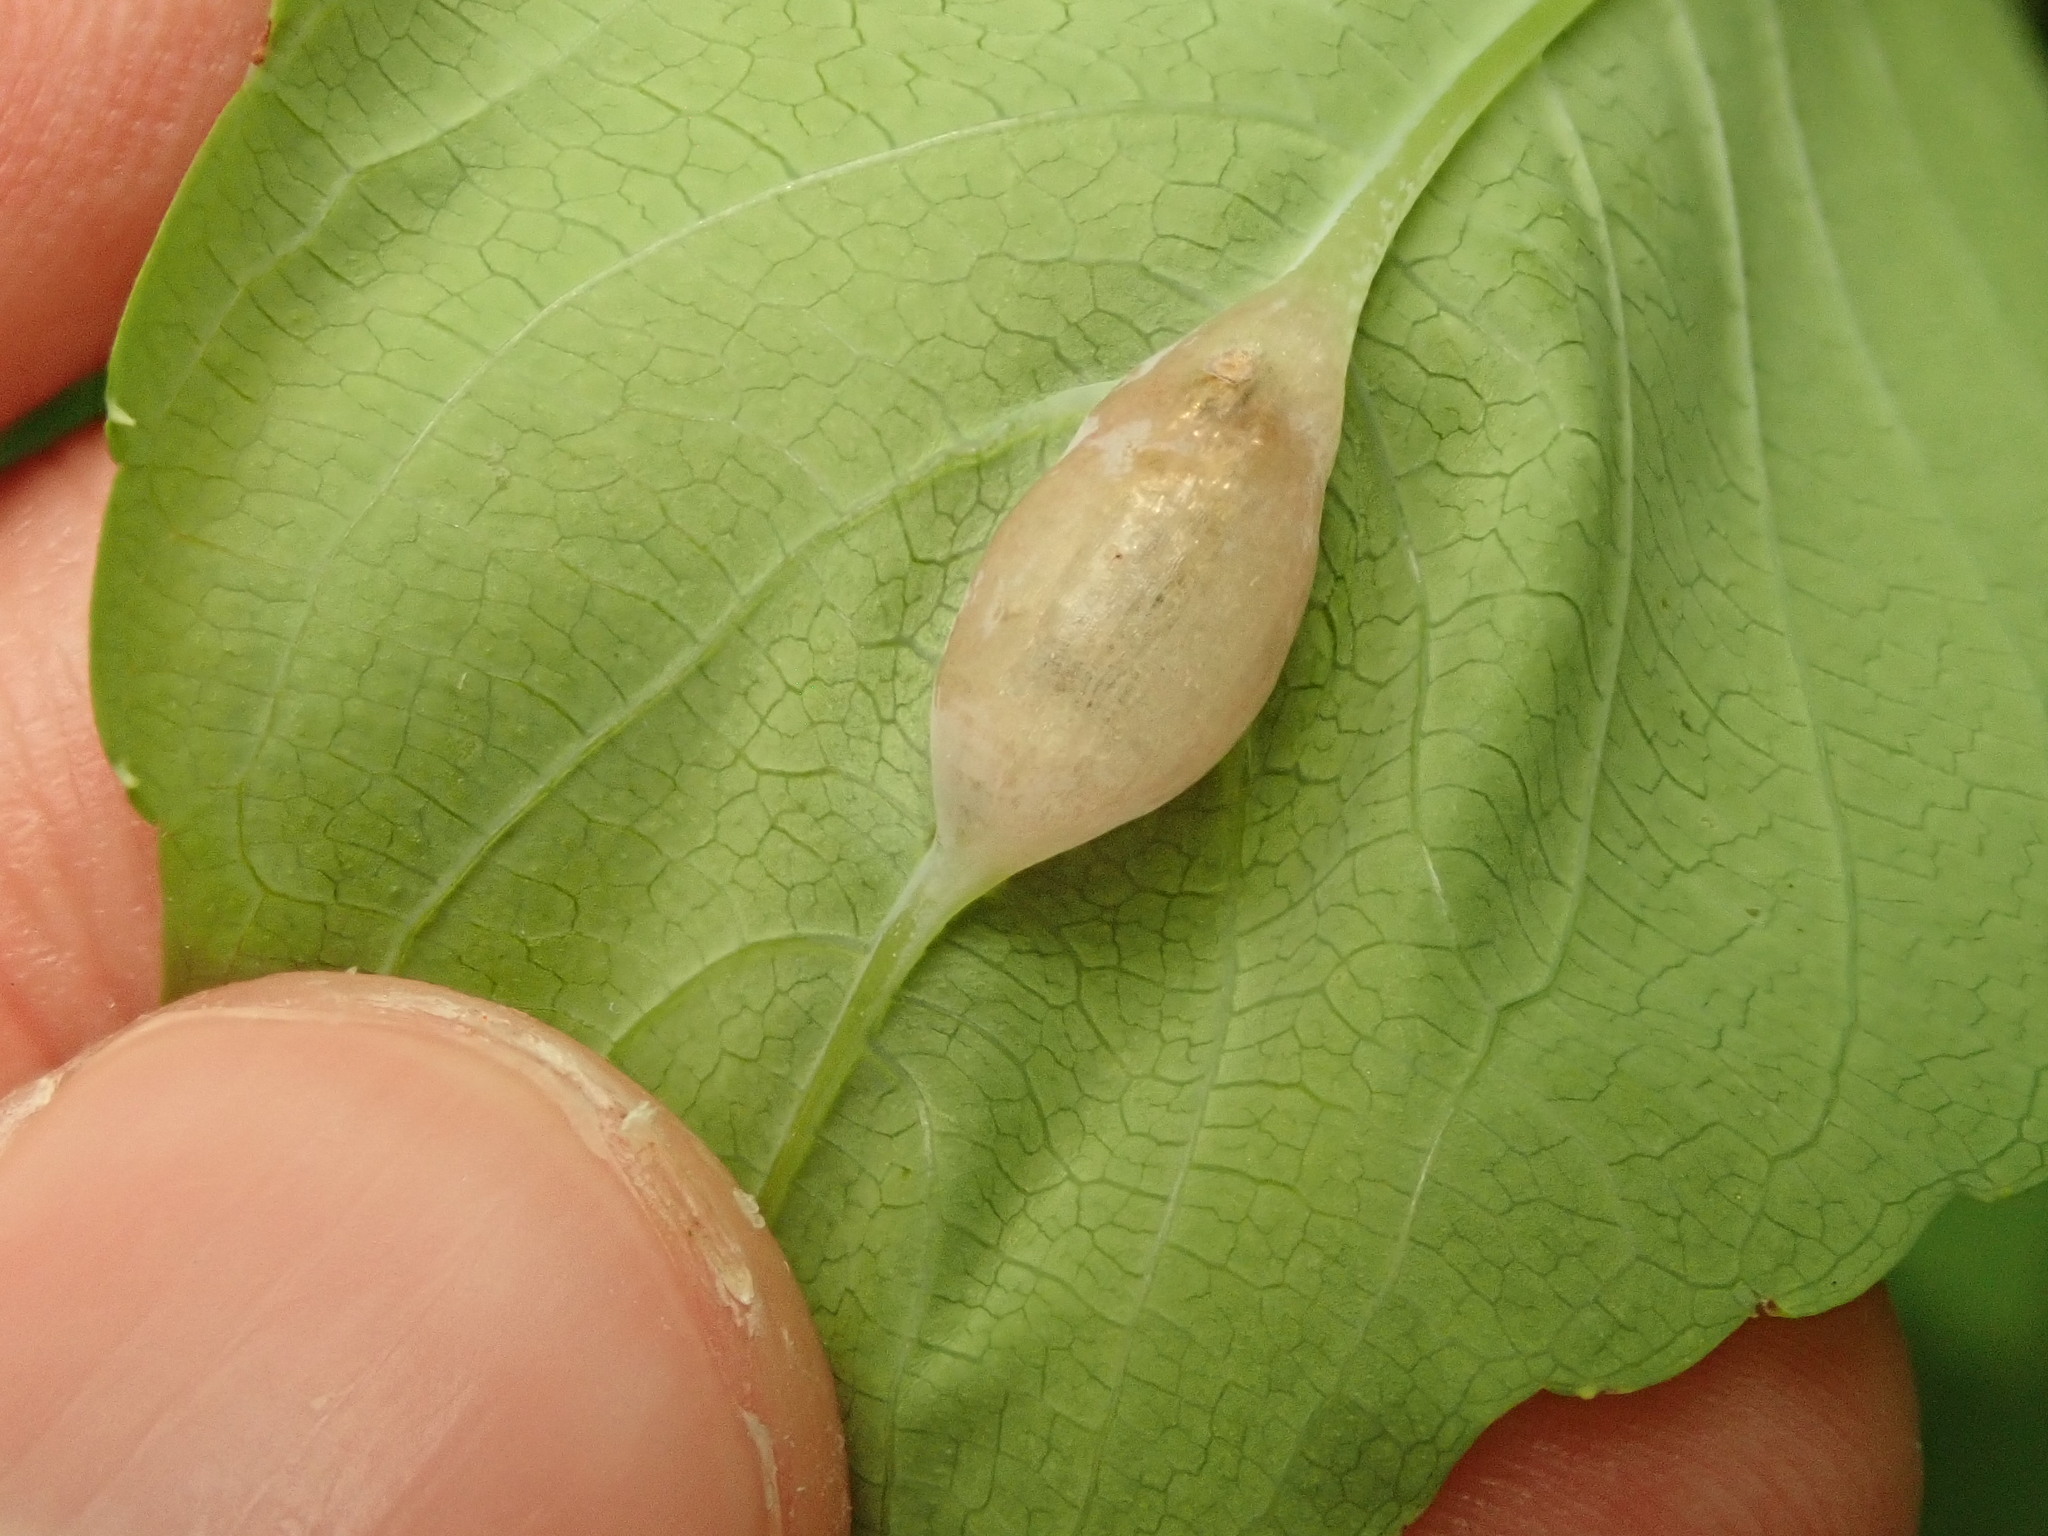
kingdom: Animalia
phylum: Arthropoda
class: Insecta
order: Diptera
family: Cecidomyiidae
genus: Neolasioptera
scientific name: Neolasioptera impatientifolia
